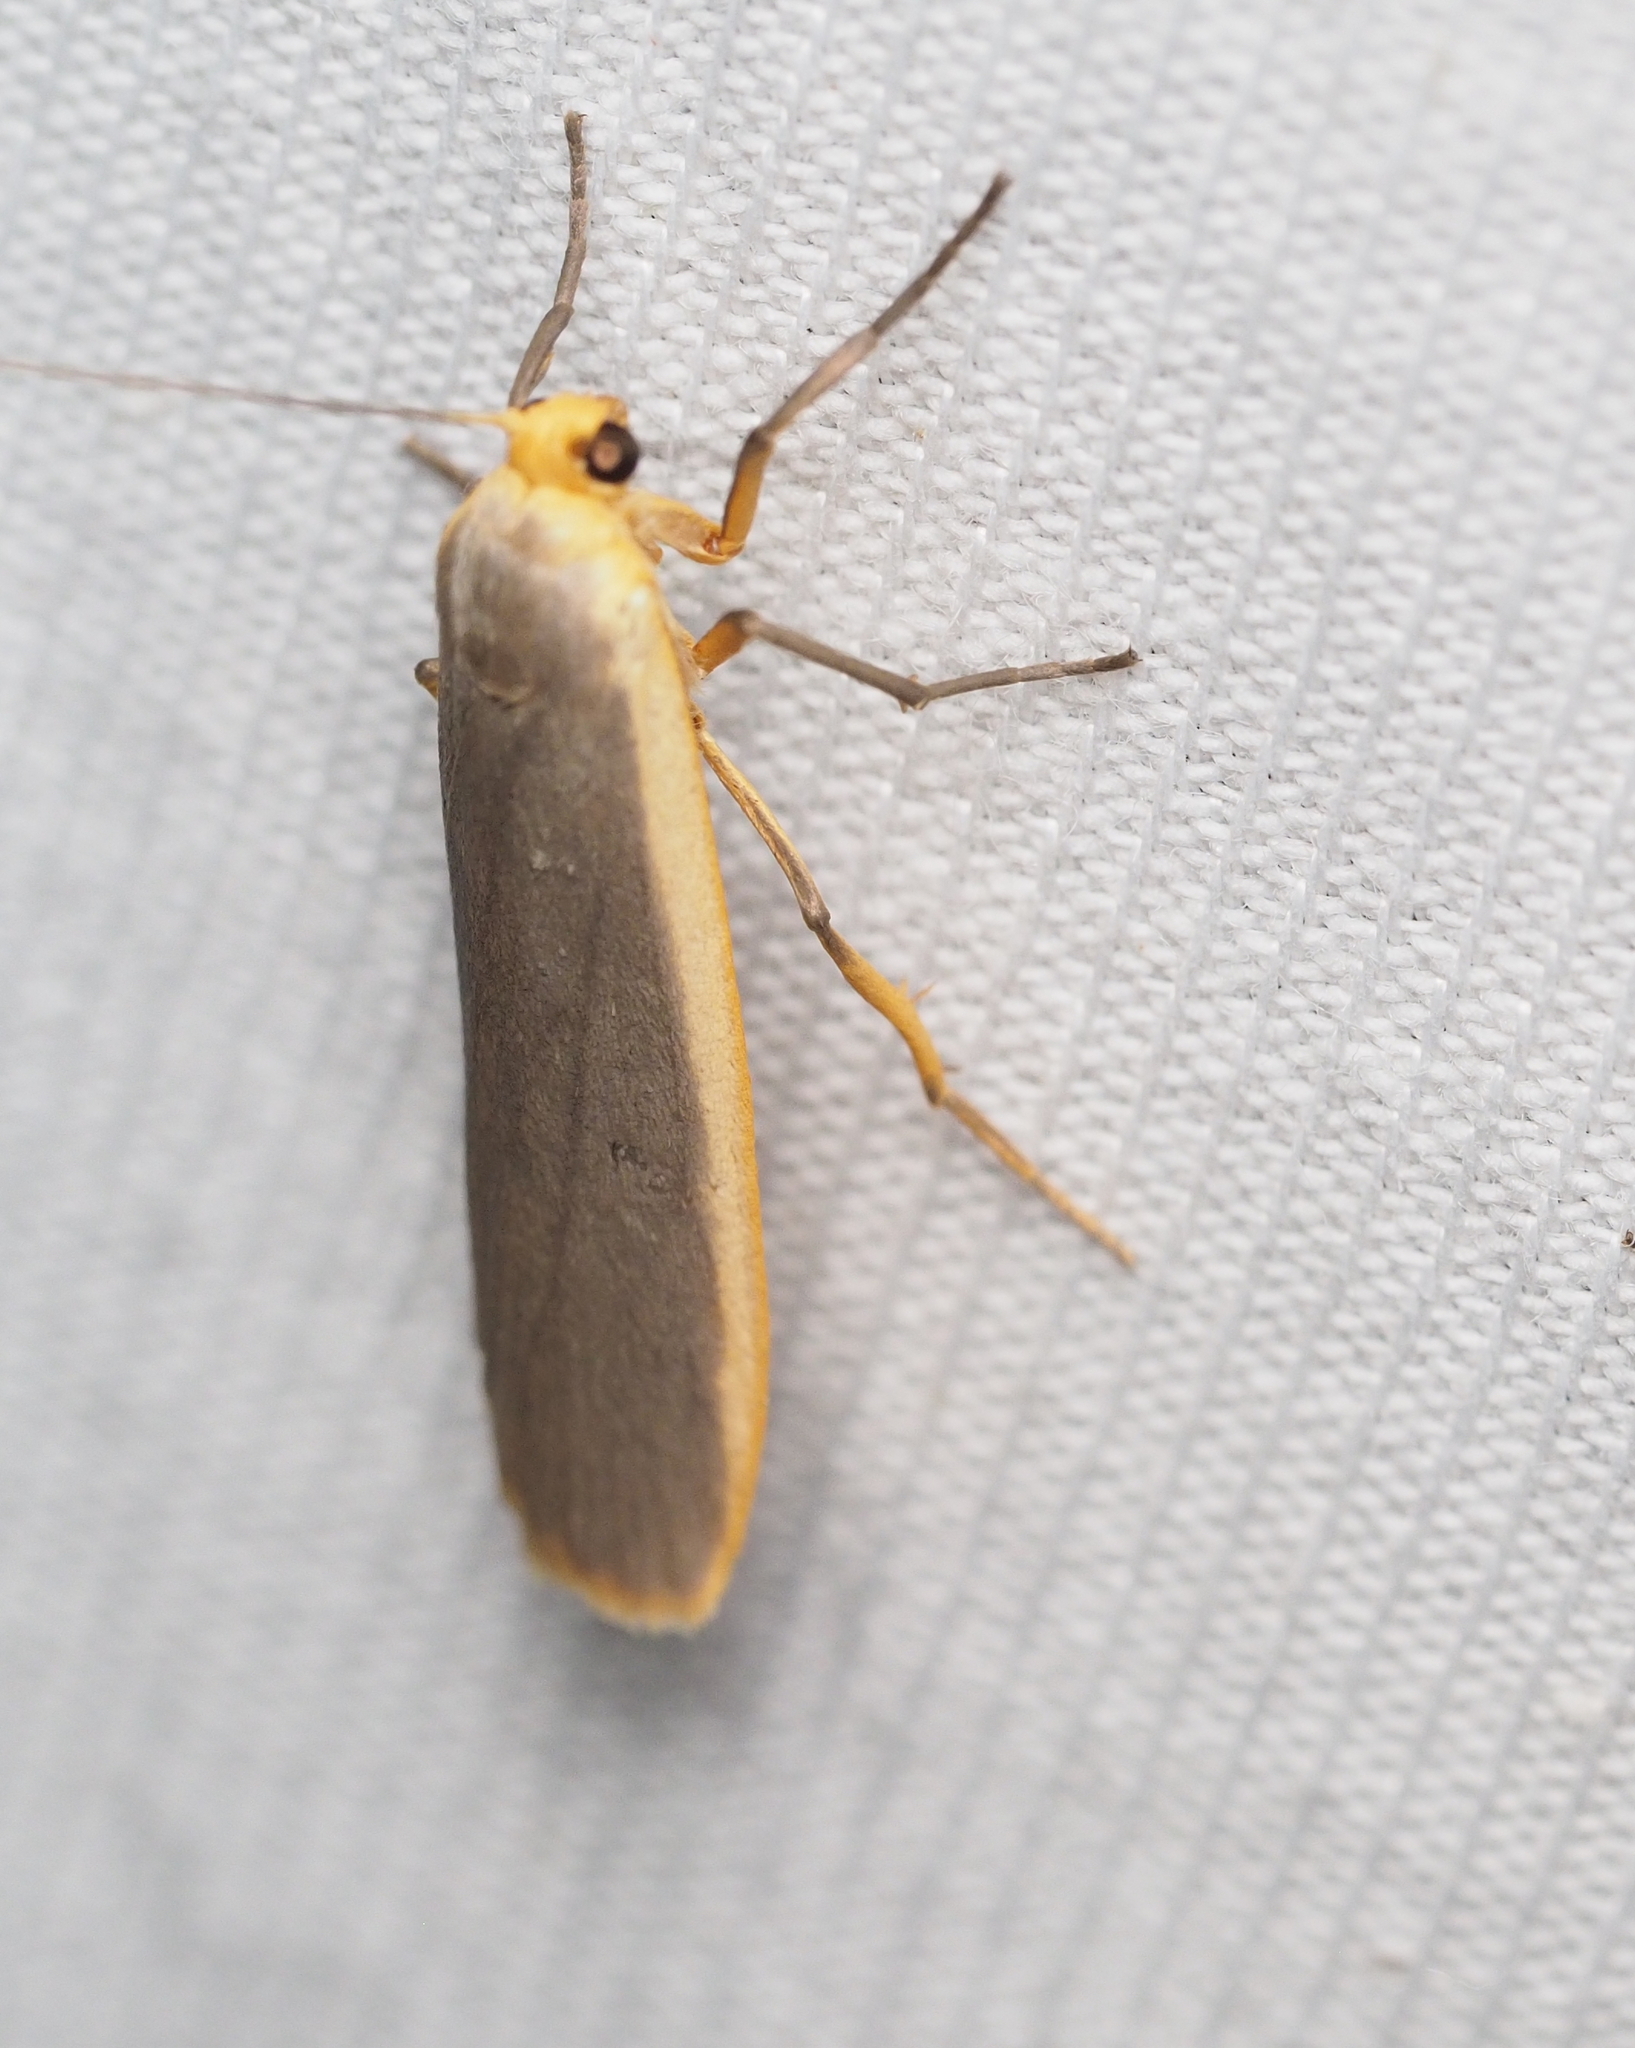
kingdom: Animalia
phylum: Arthropoda
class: Insecta
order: Lepidoptera
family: Erebidae
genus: Nyea
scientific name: Nyea lurideola
